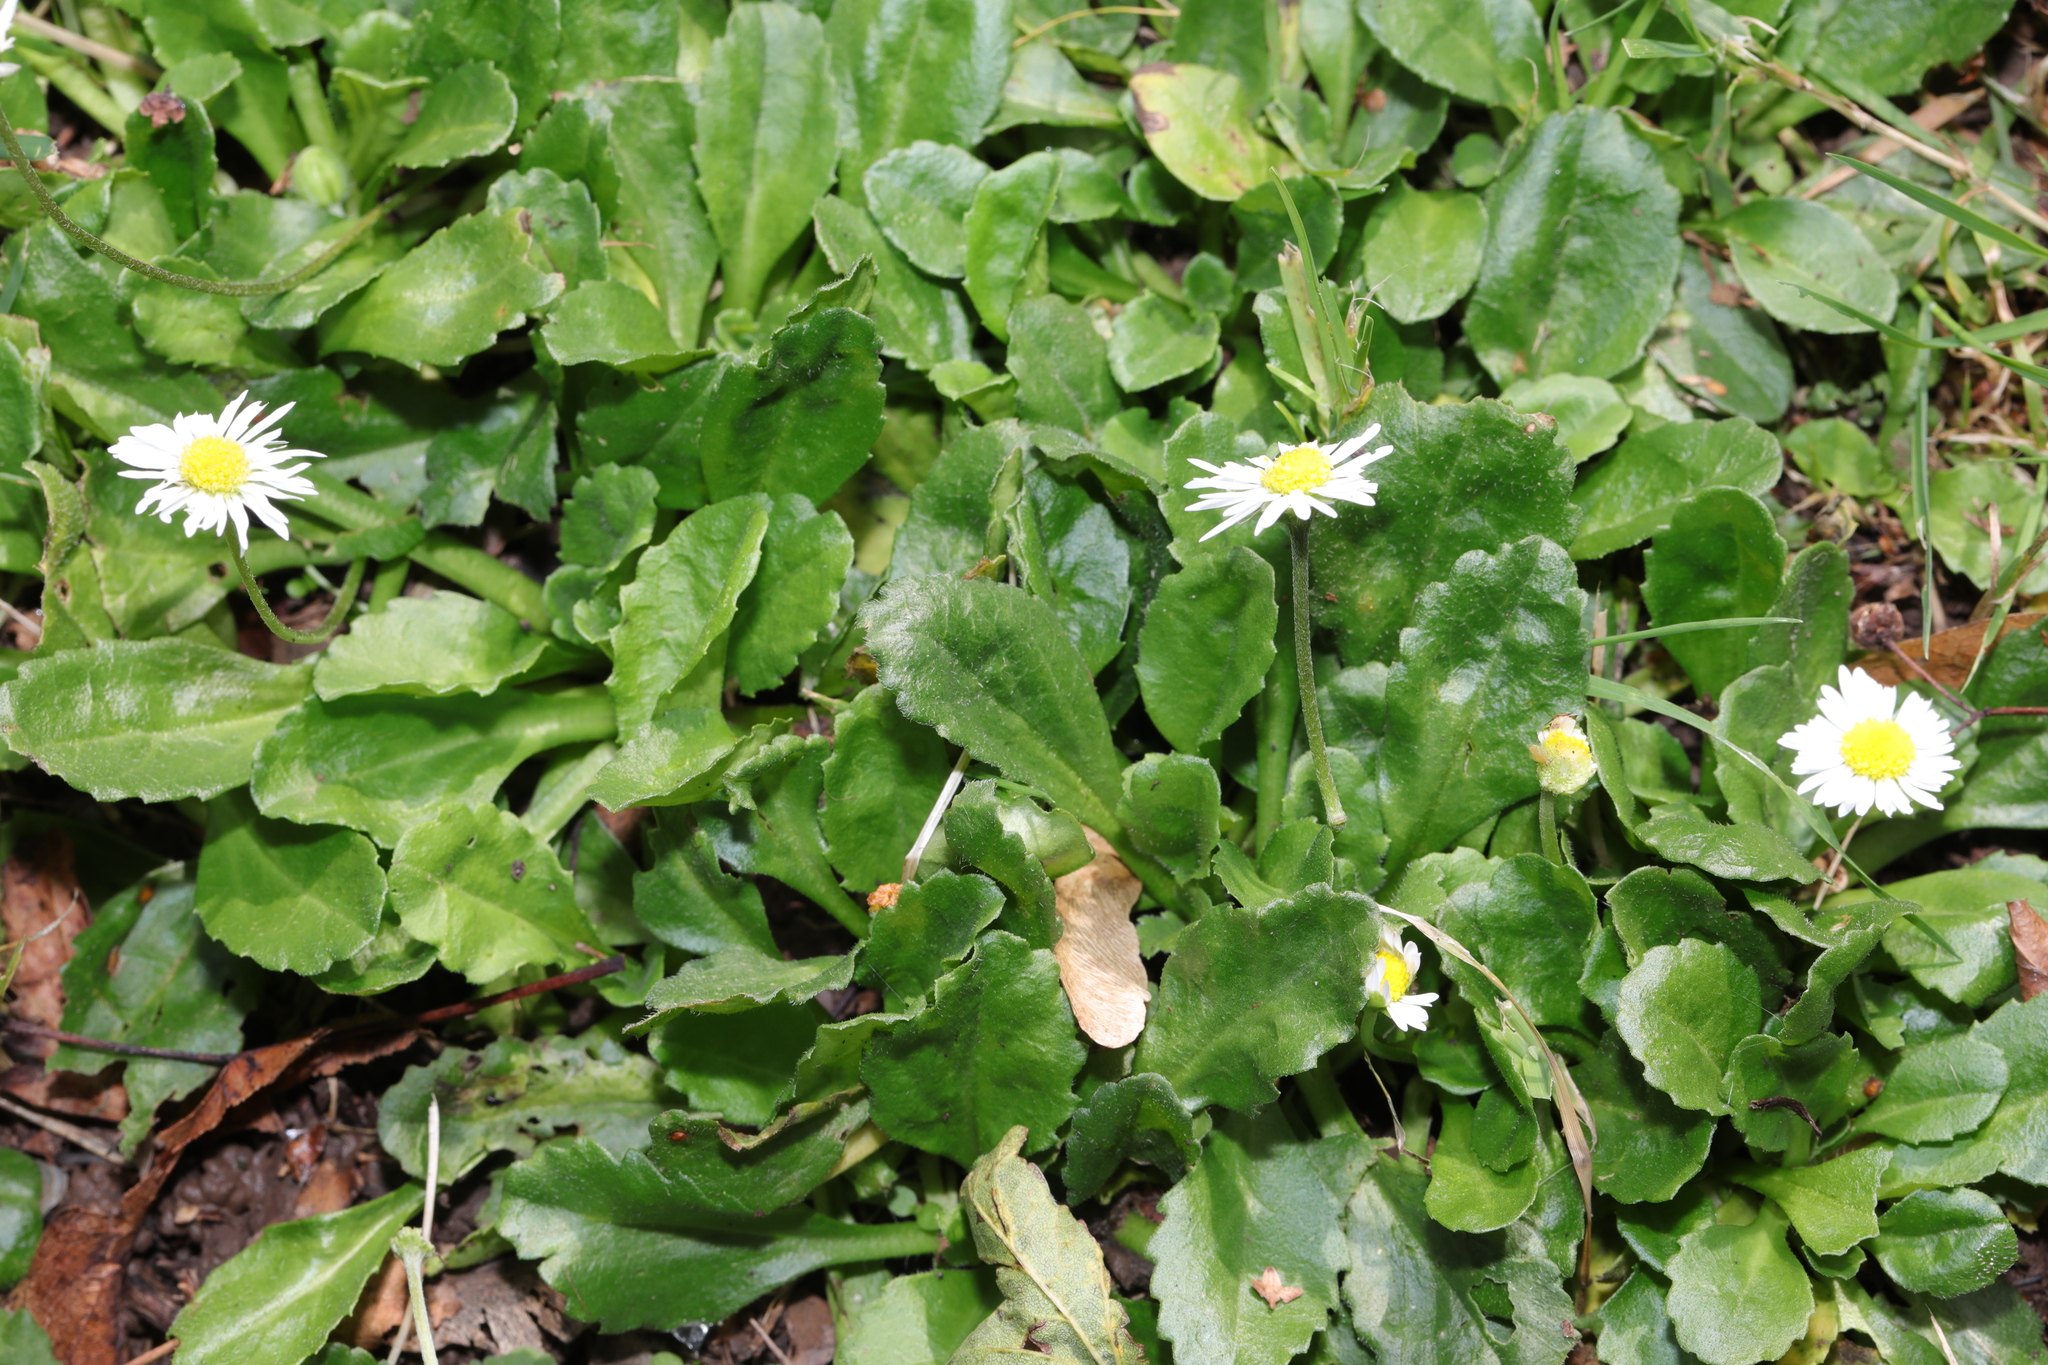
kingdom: Plantae
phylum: Tracheophyta
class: Magnoliopsida
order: Asterales
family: Asteraceae
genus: Bellis
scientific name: Bellis perennis
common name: Lawndaisy
